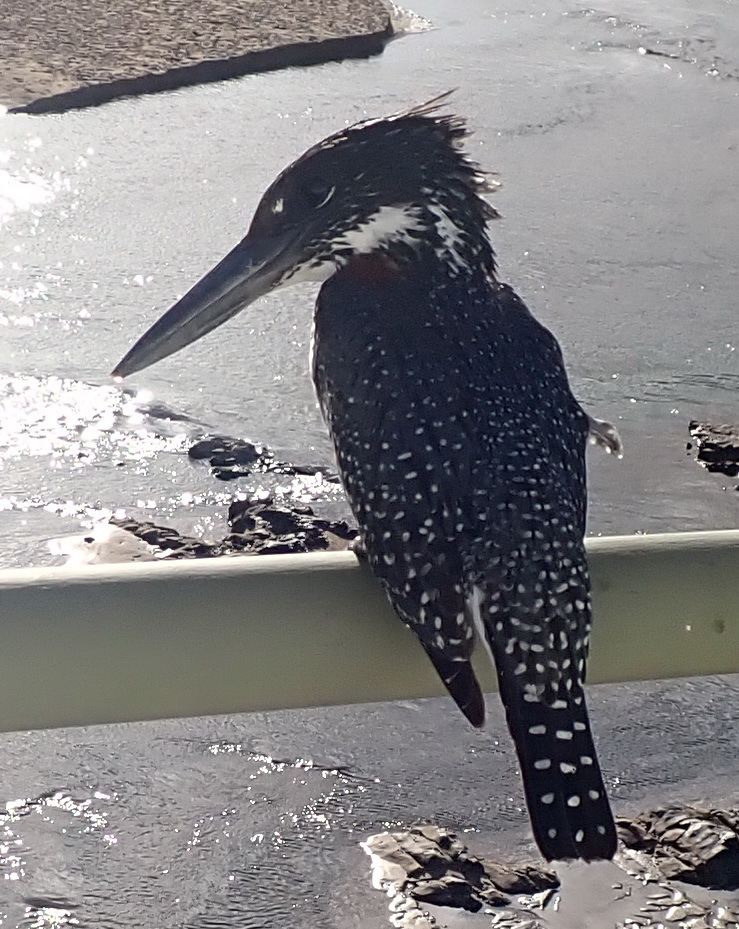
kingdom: Animalia
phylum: Chordata
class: Aves
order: Coraciiformes
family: Alcedinidae
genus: Megaceryle
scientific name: Megaceryle maxima
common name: Giant kingfisher
